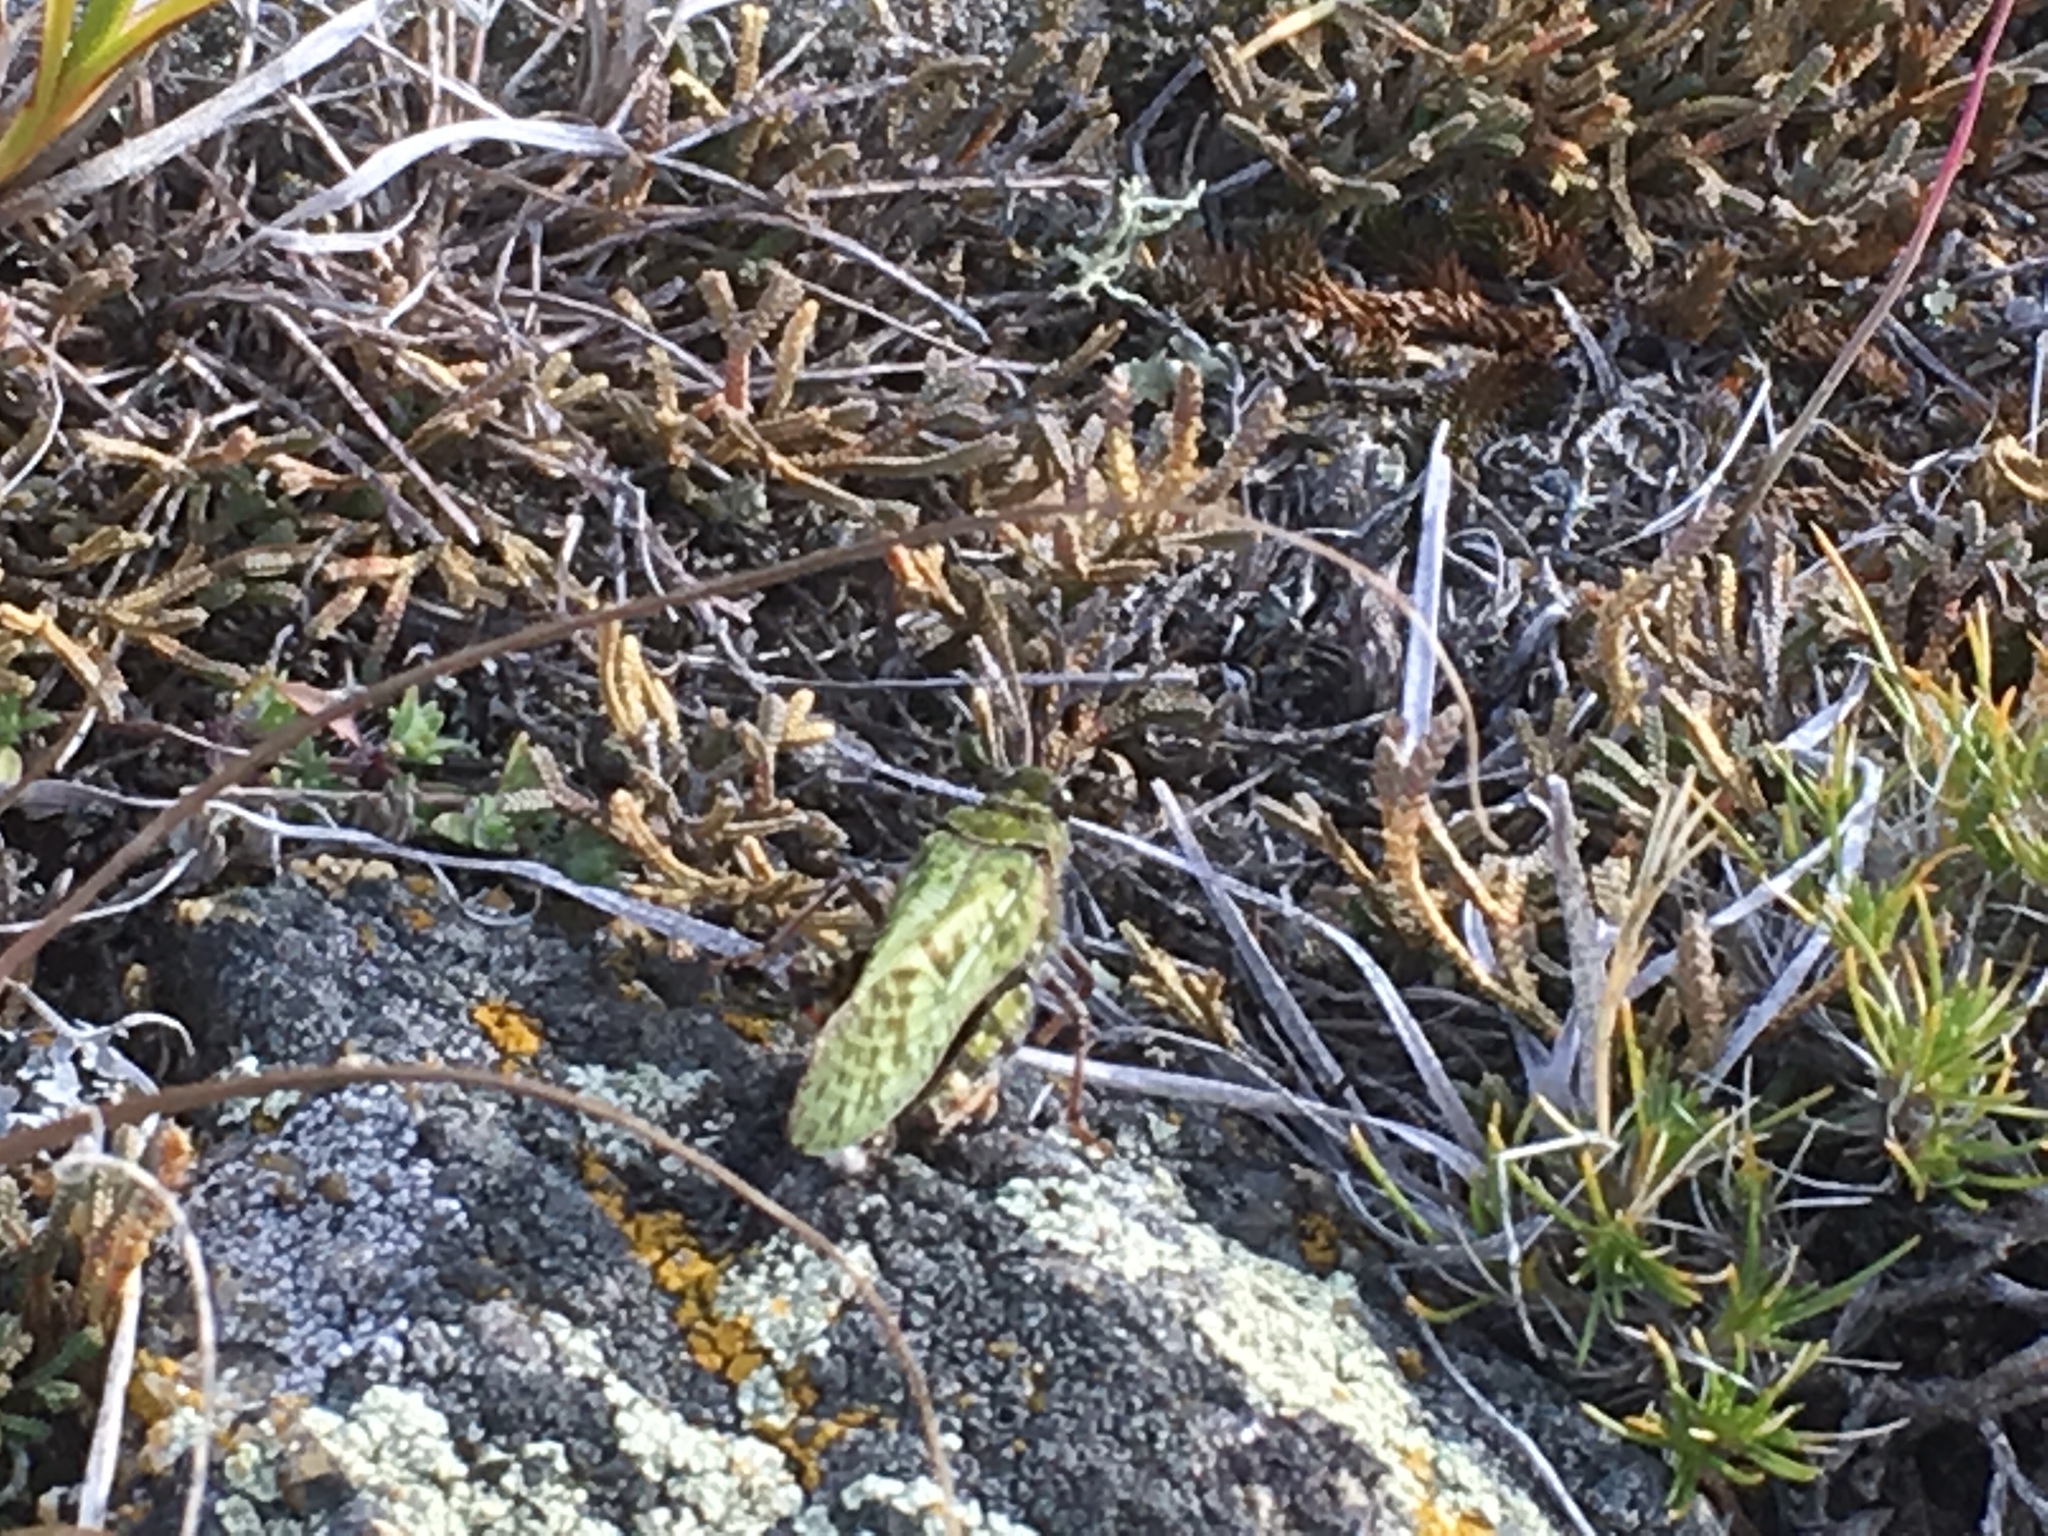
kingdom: Animalia
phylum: Arthropoda
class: Insecta
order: Orthoptera
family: Acrididae
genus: Angaracris
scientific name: Angaracris barabensis
